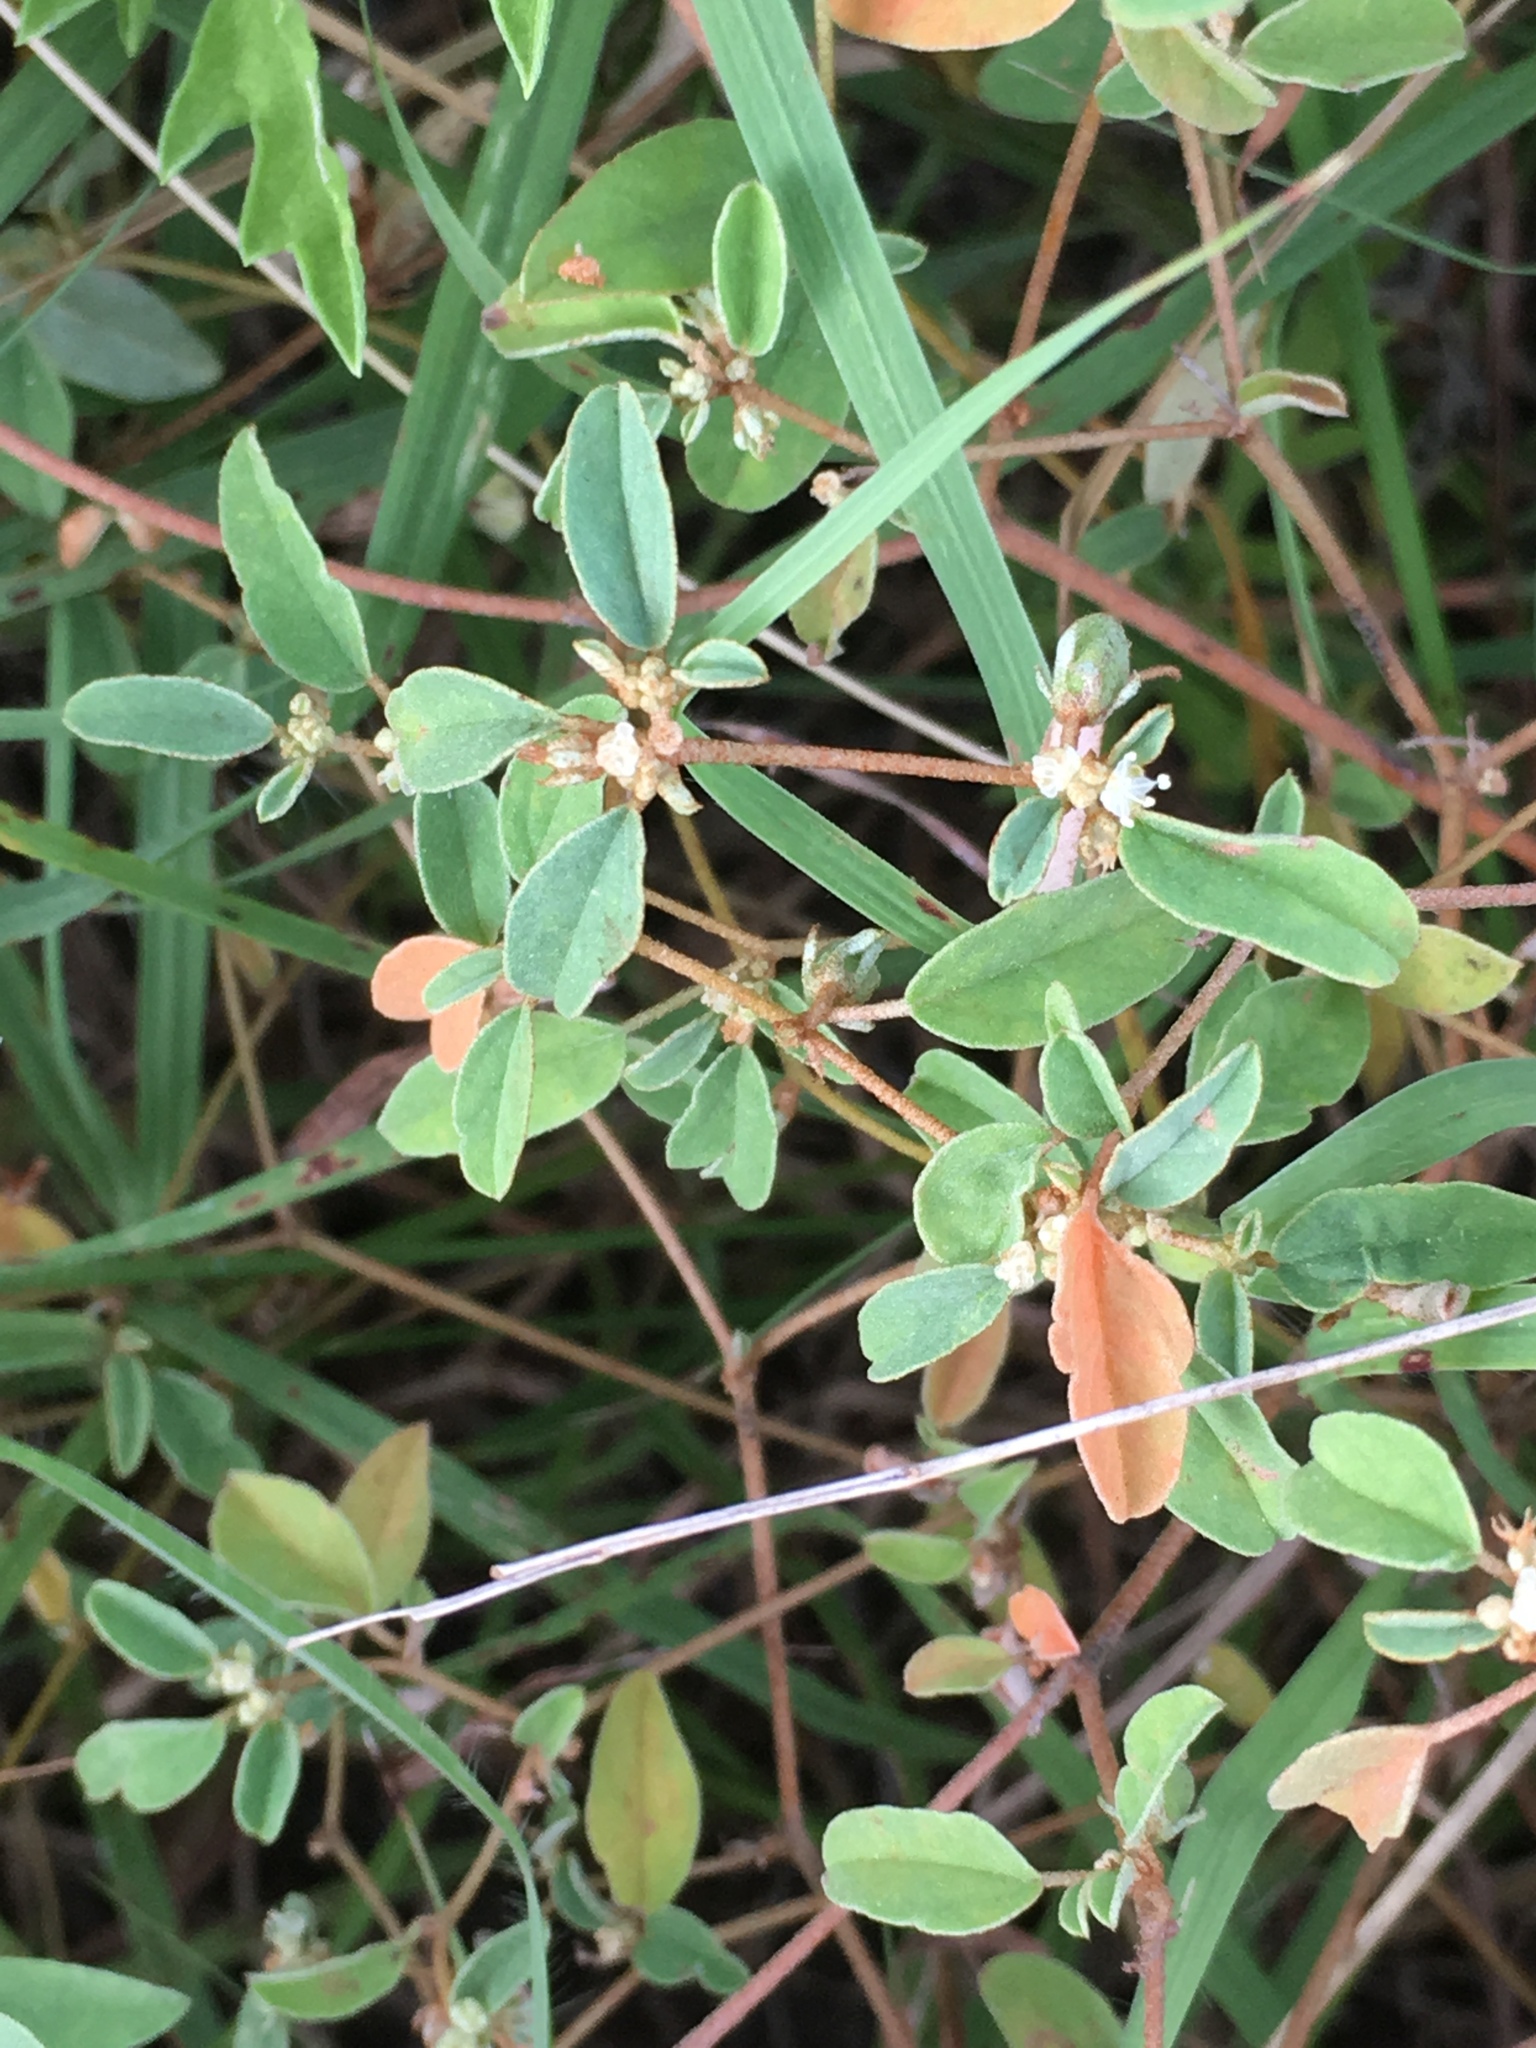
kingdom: Plantae
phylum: Tracheophyta
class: Magnoliopsida
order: Malpighiales
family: Euphorbiaceae
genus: Croton
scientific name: Croton monanthogynus
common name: One-seed croton
